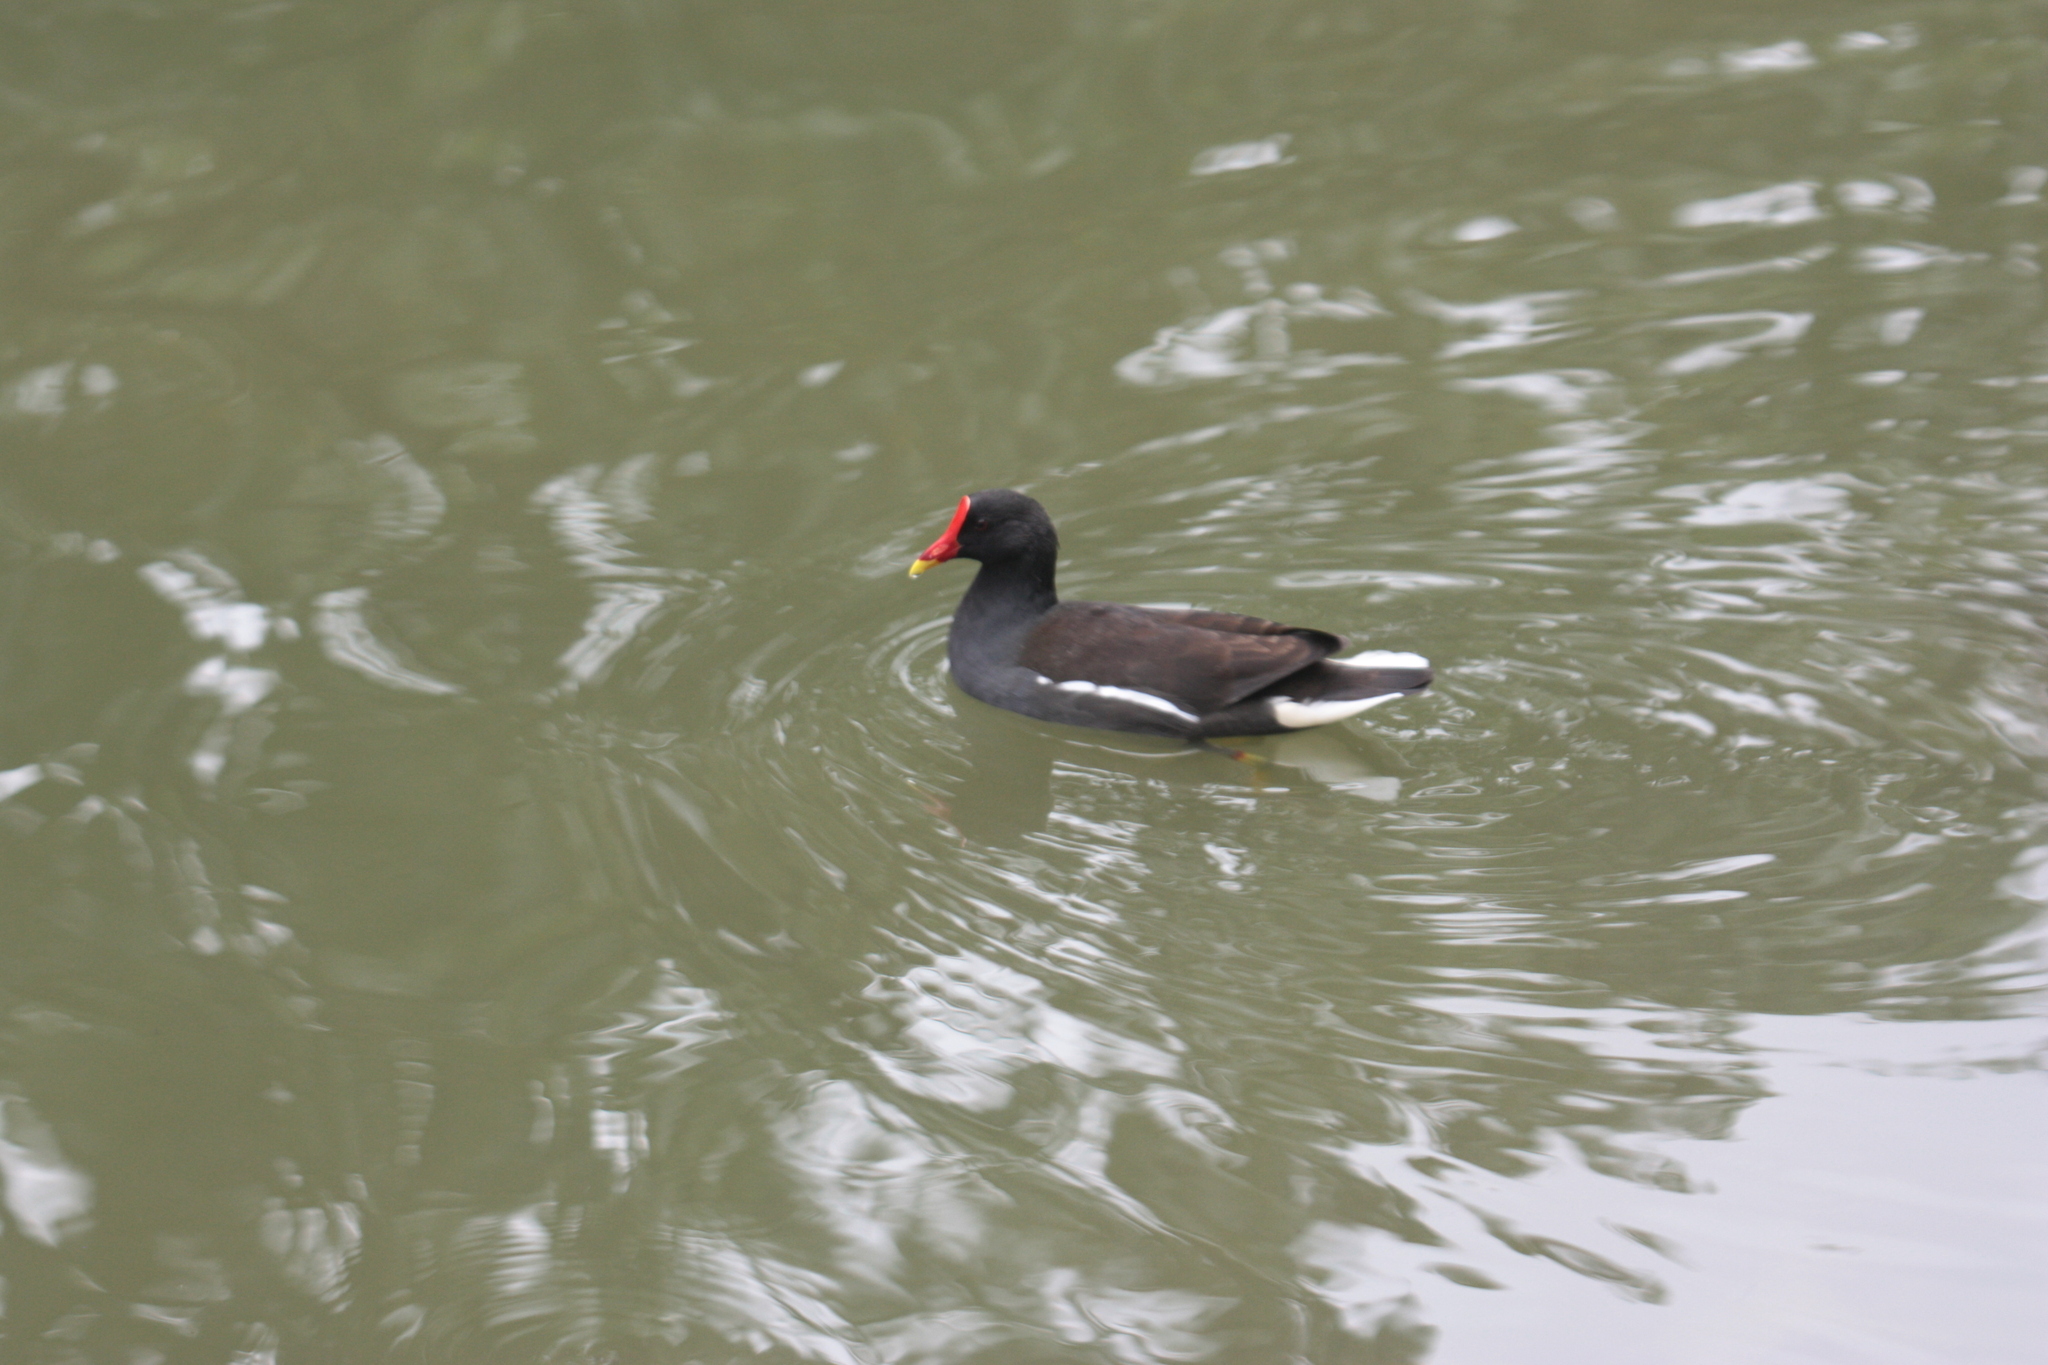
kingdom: Animalia
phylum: Chordata
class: Aves
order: Gruiformes
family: Rallidae
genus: Gallinula
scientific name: Gallinula chloropus
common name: Common moorhen
